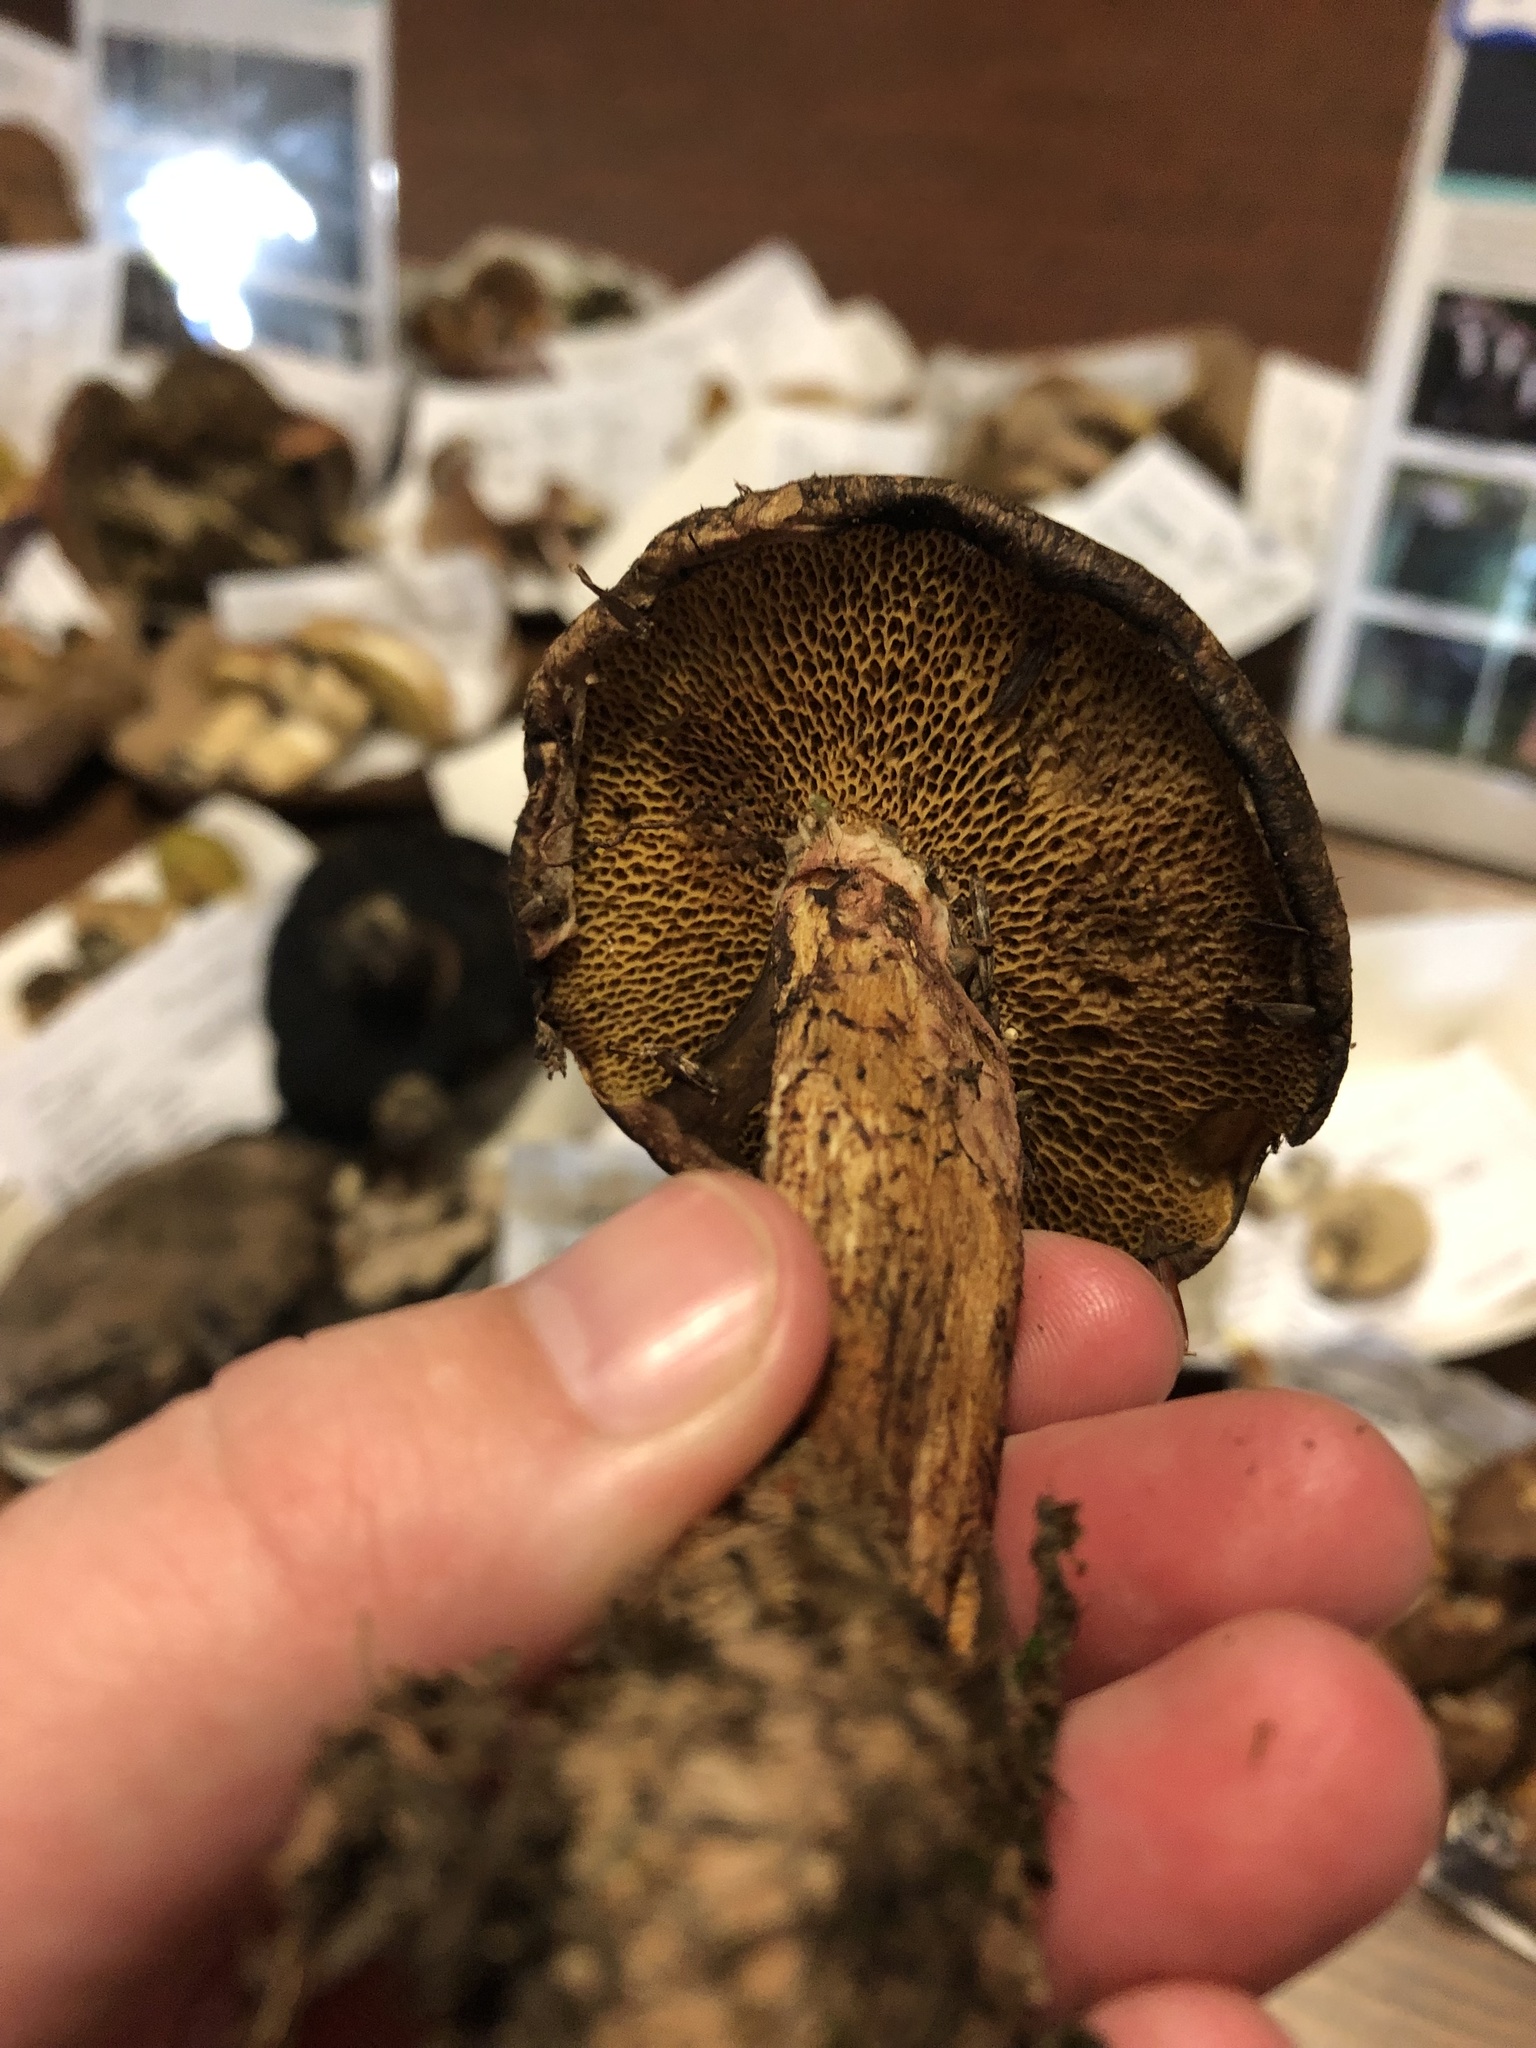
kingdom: Fungi
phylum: Basidiomycota
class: Agaricomycetes
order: Boletales
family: Suillaceae
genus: Suillus
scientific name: Suillus spraguei
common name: Painted suillus
